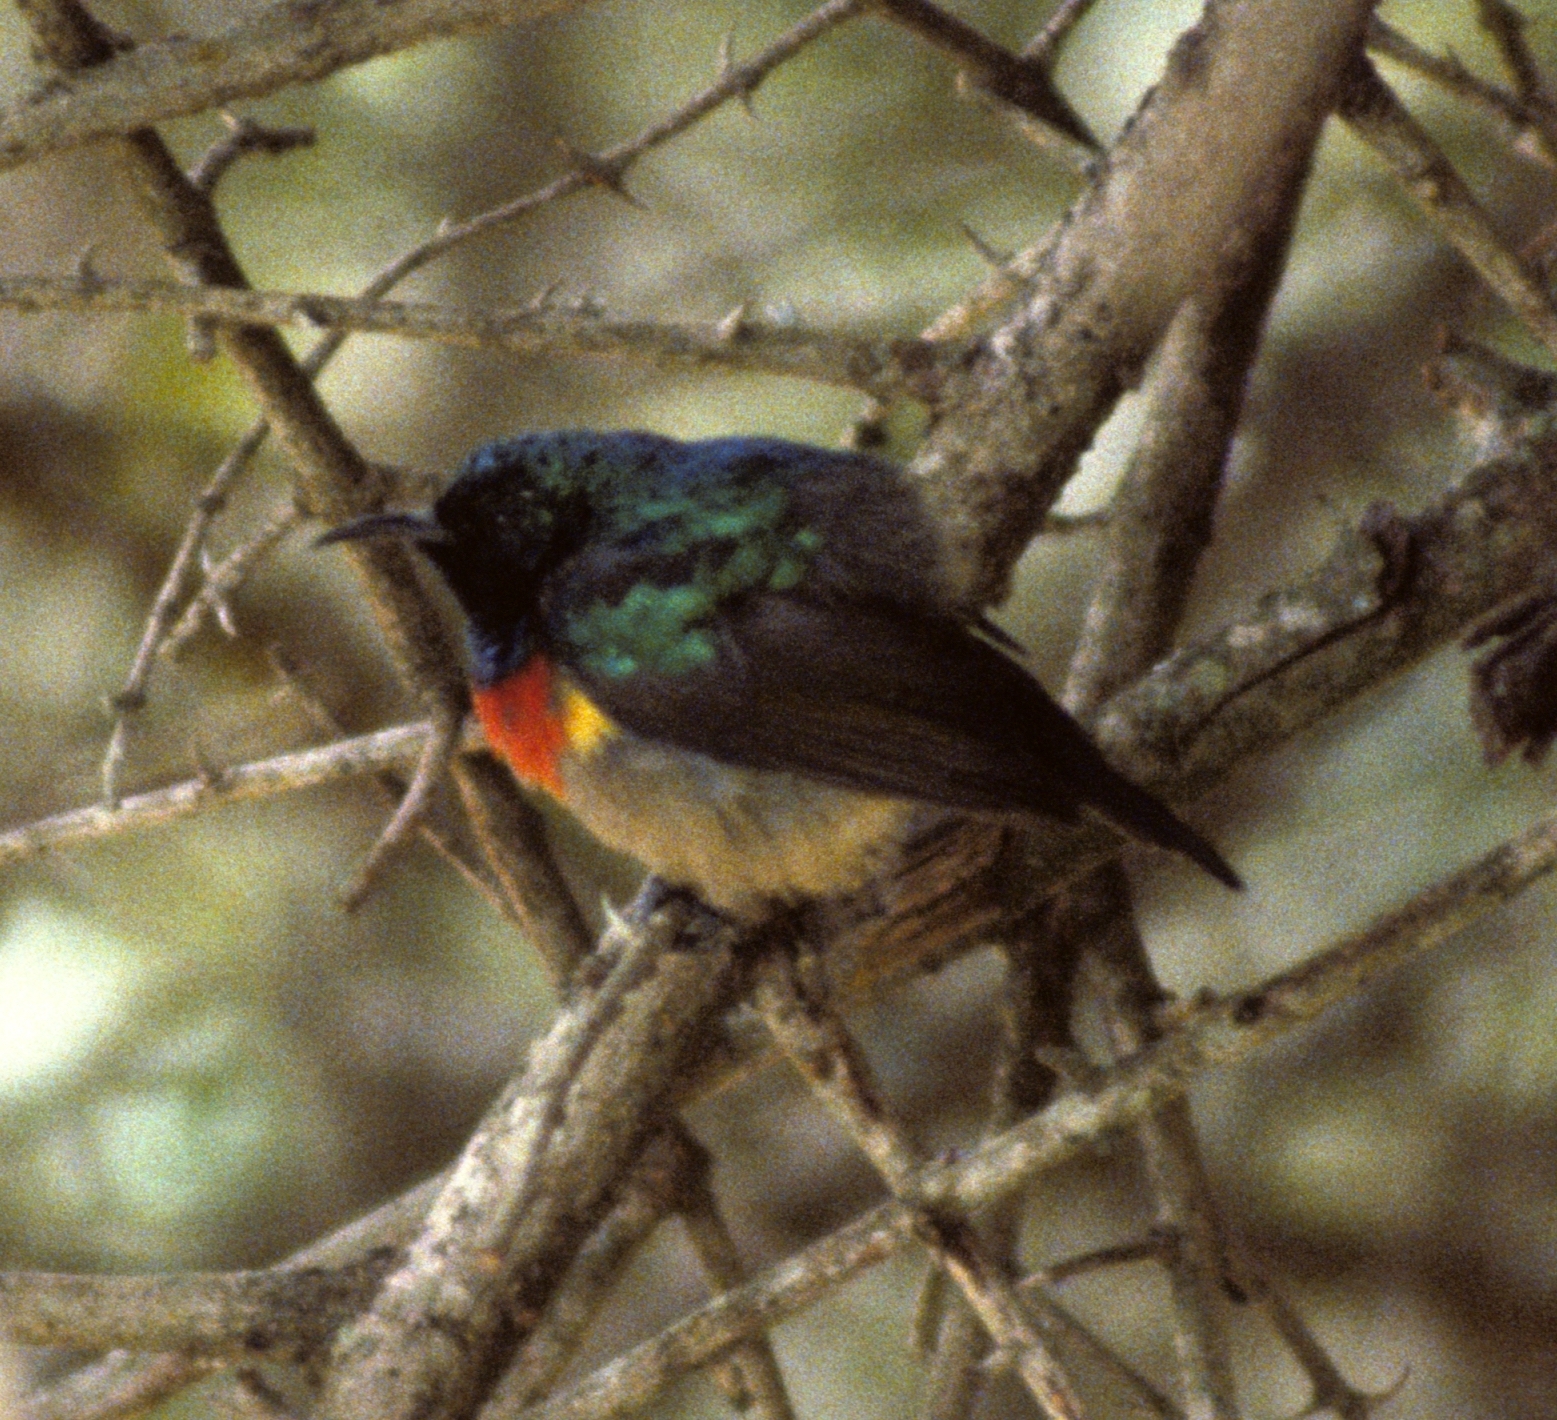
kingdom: Animalia
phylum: Chordata
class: Aves
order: Passeriformes
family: Nectariniidae
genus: Cinnyris
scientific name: Cinnyris mediocris
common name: Eastern double-collared sunbird
